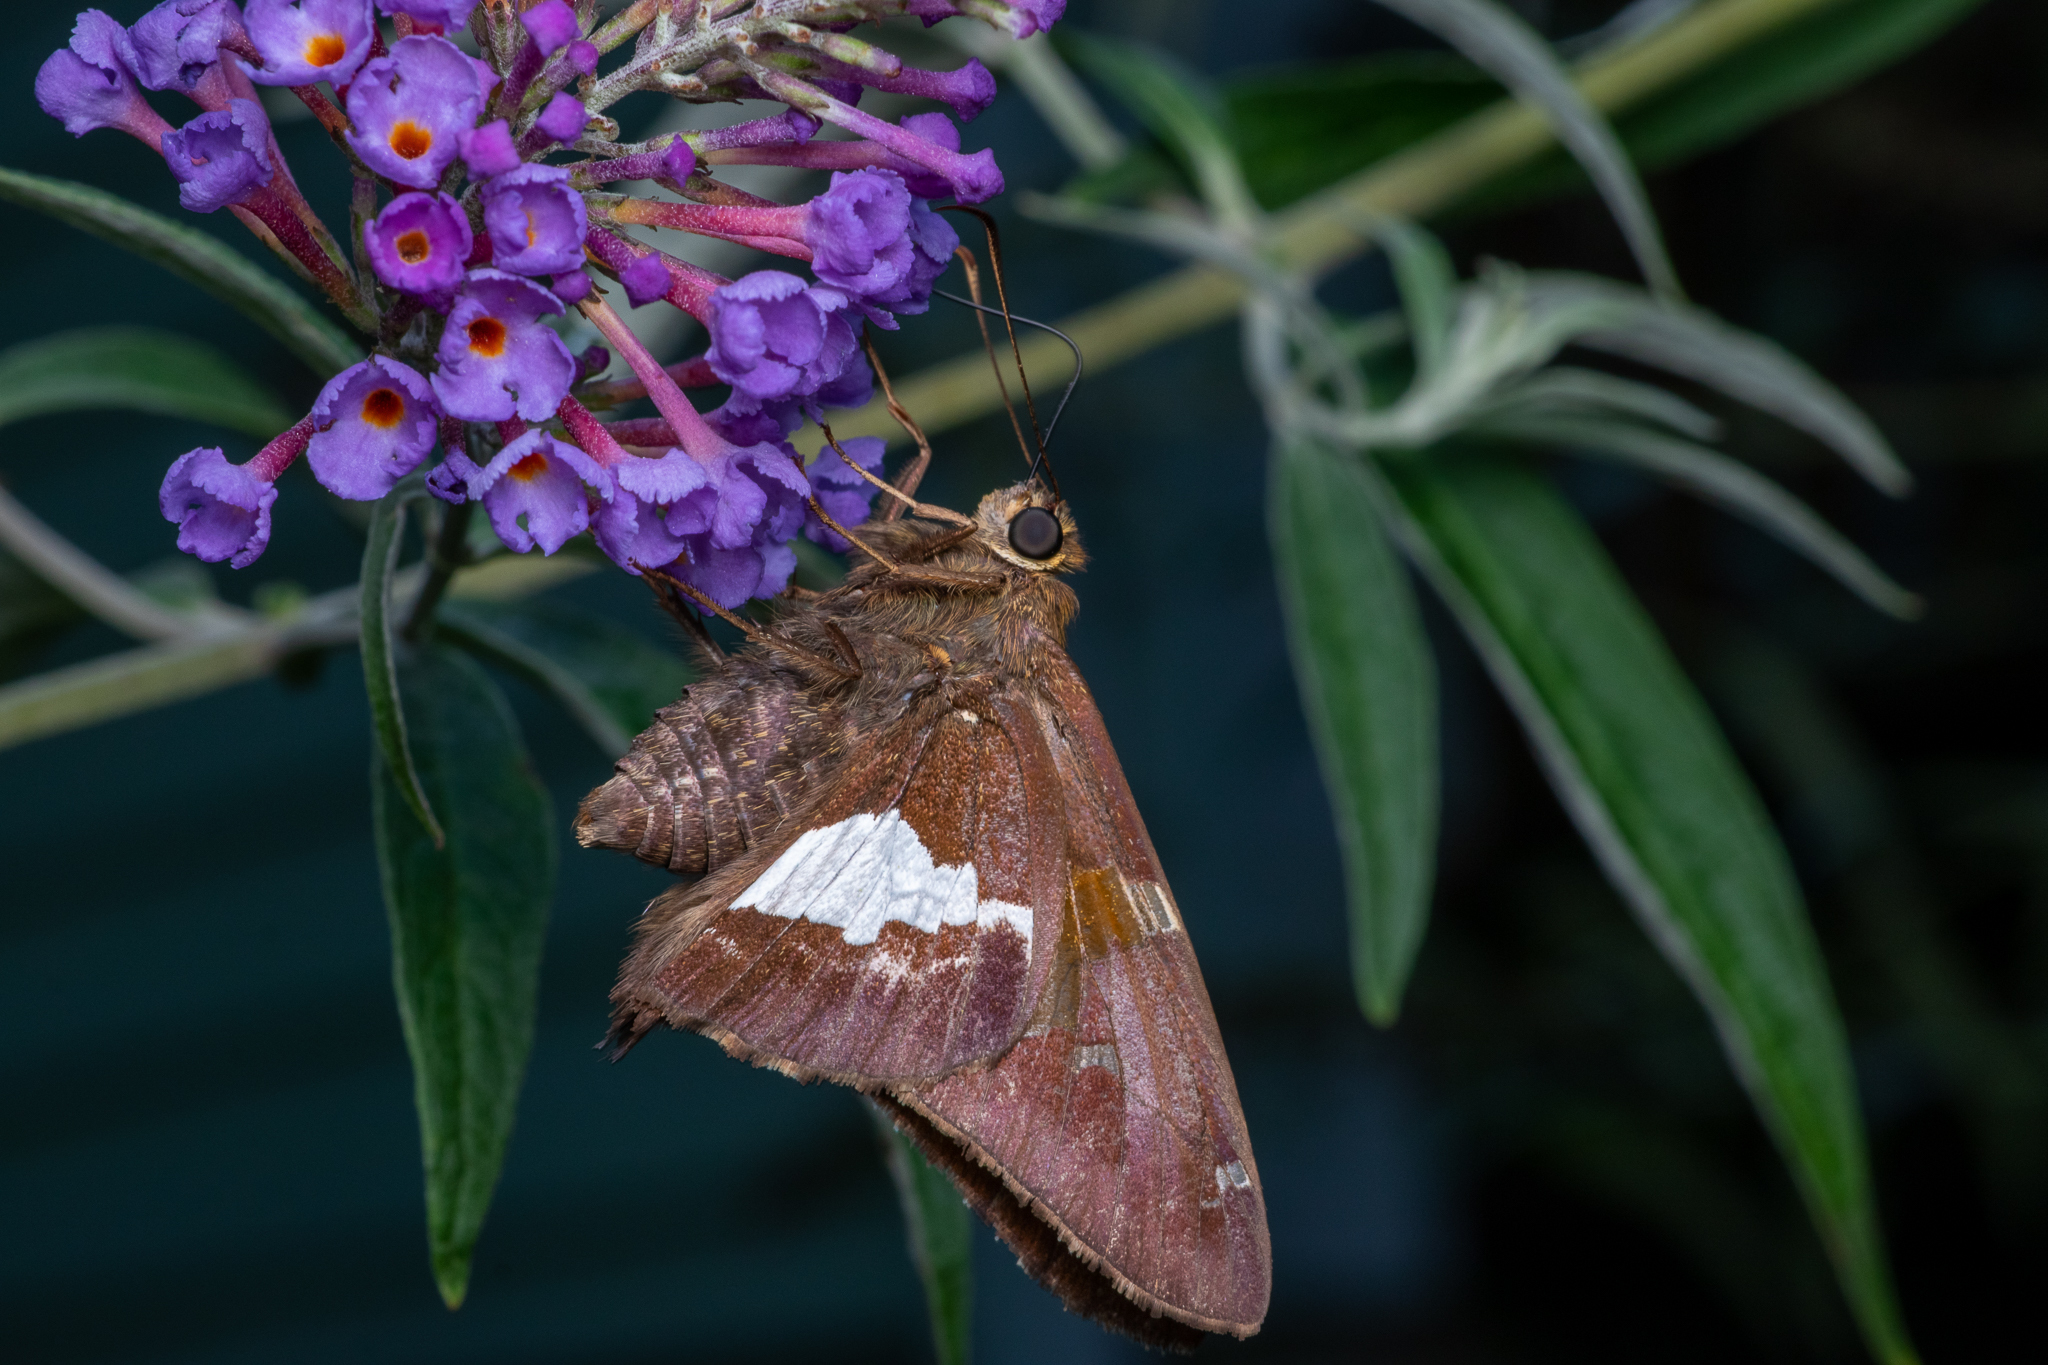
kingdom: Animalia
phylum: Arthropoda
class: Insecta
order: Lepidoptera
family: Hesperiidae
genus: Epargyreus
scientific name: Epargyreus clarus
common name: Silver-spotted skipper
